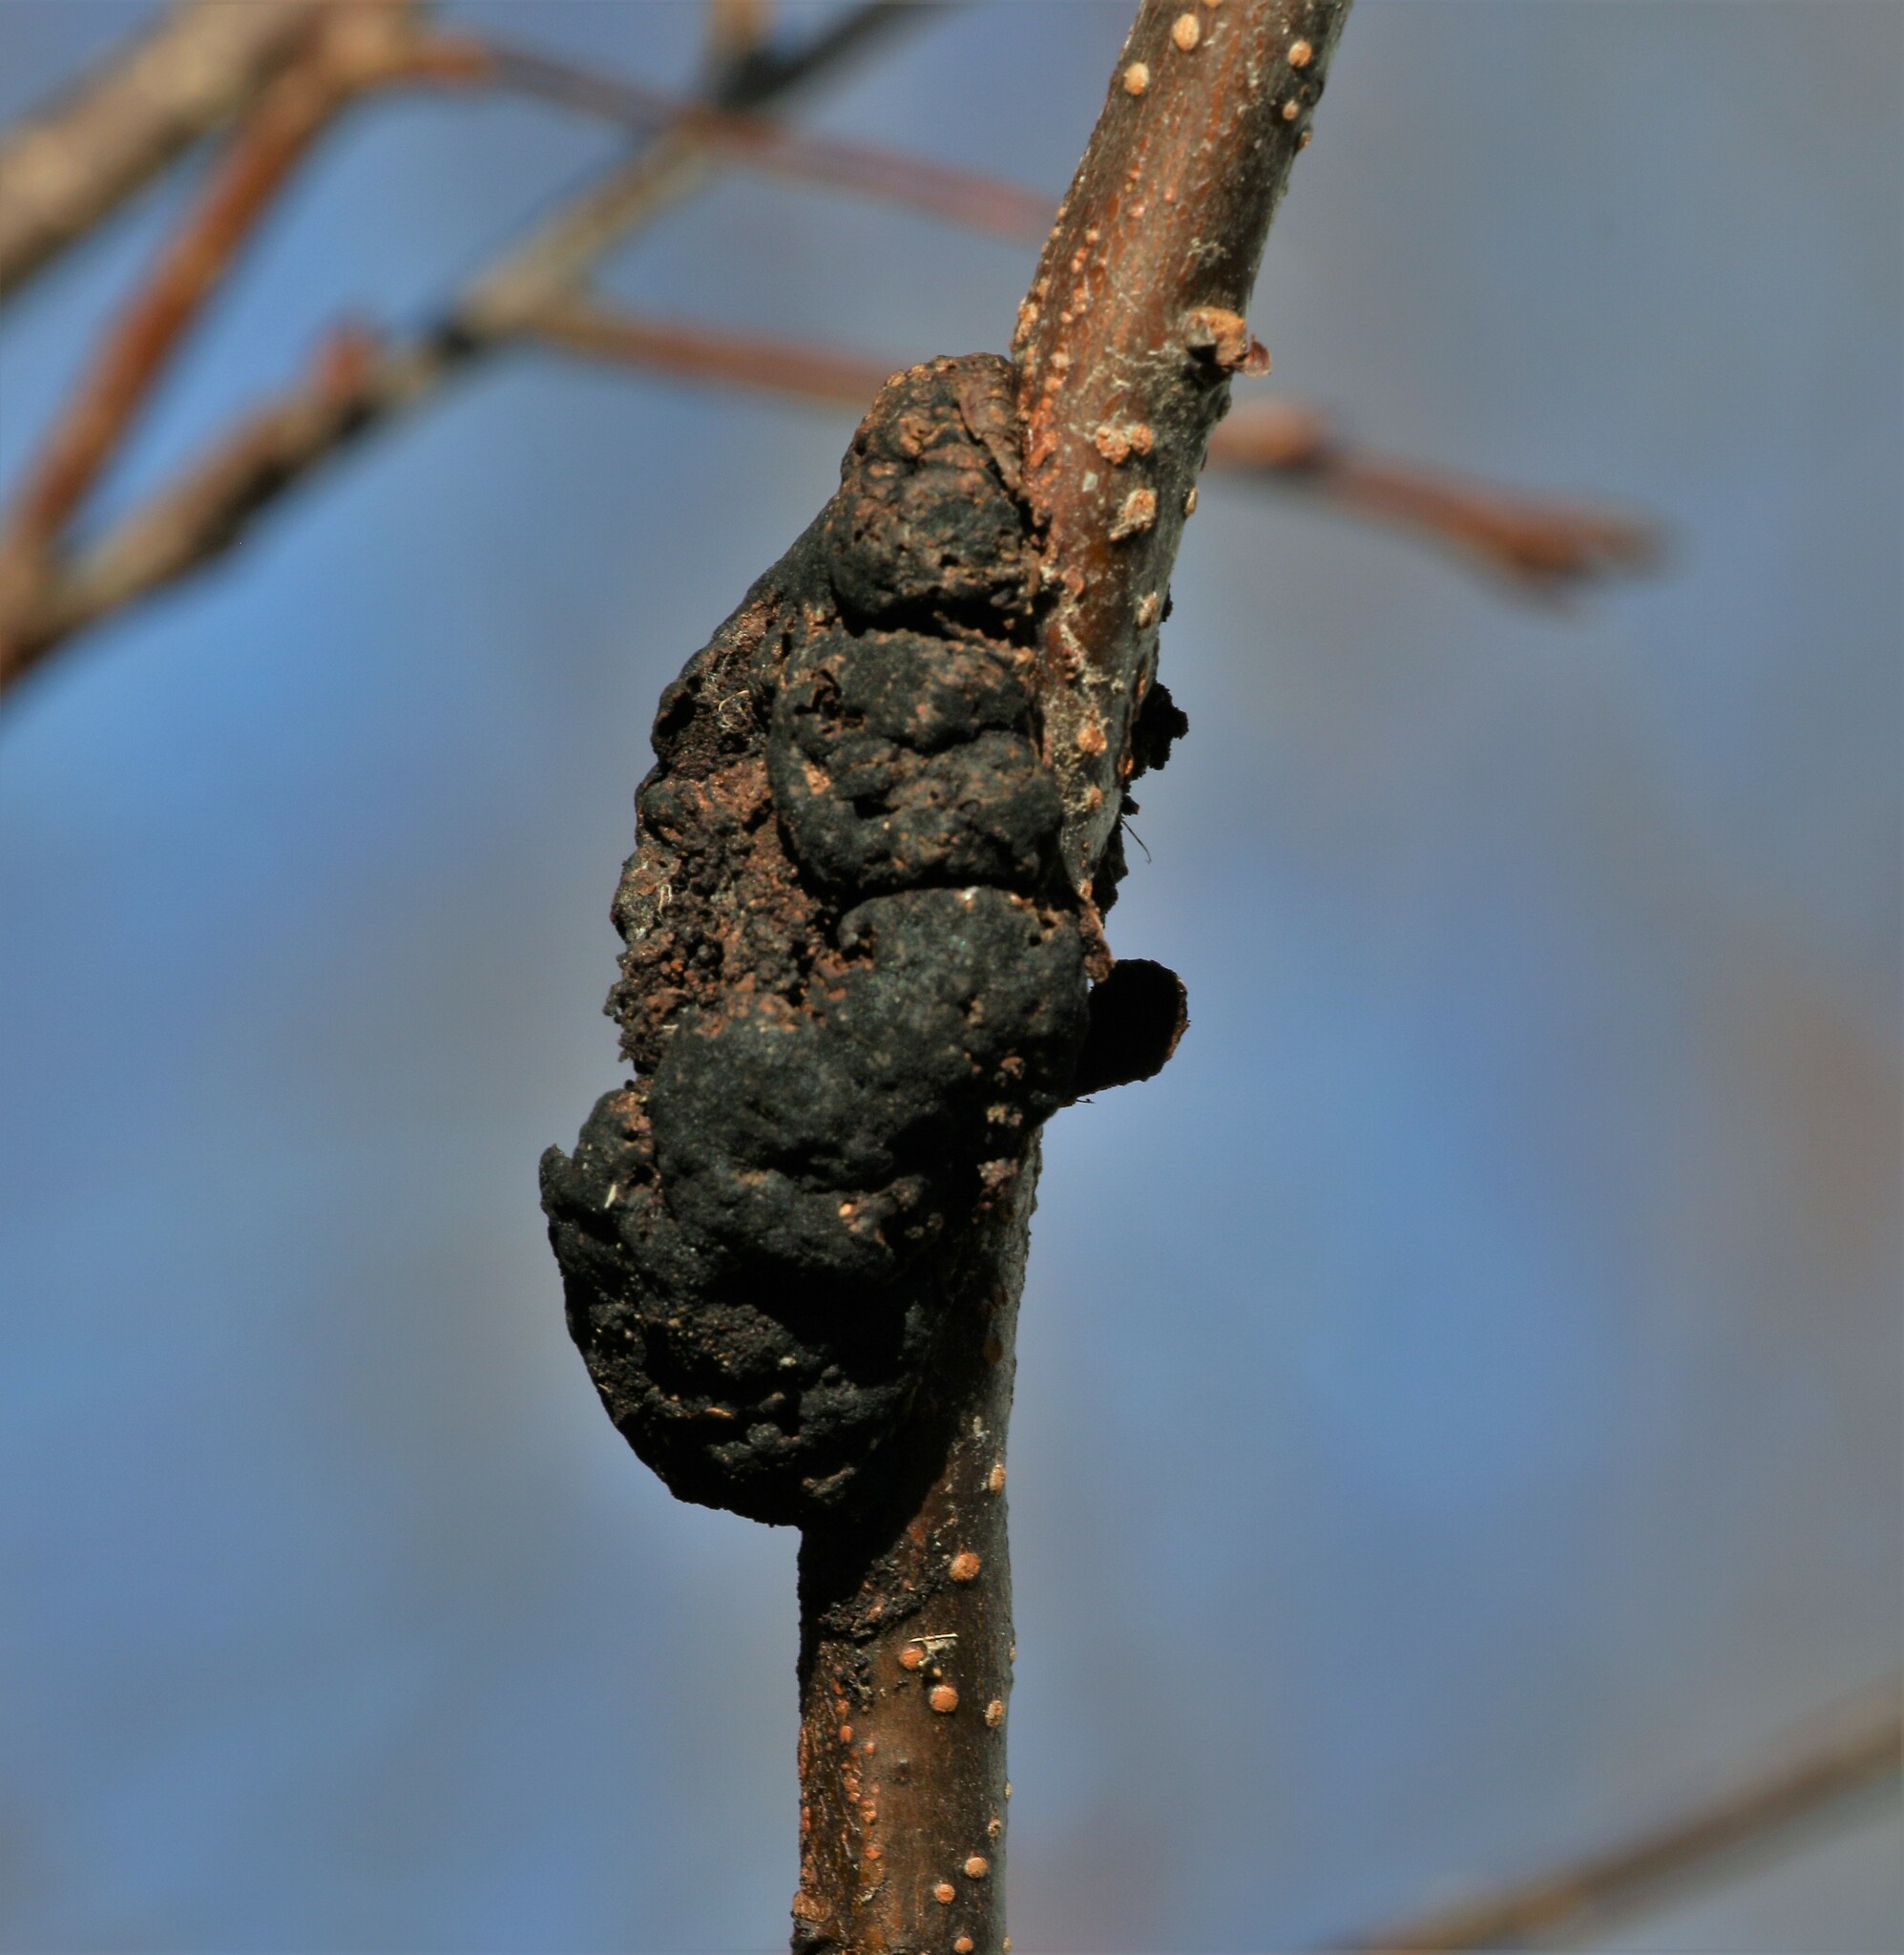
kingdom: Fungi
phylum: Ascomycota
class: Dothideomycetes
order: Venturiales
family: Venturiaceae
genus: Apiosporina
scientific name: Apiosporina morbosa
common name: Black knot
